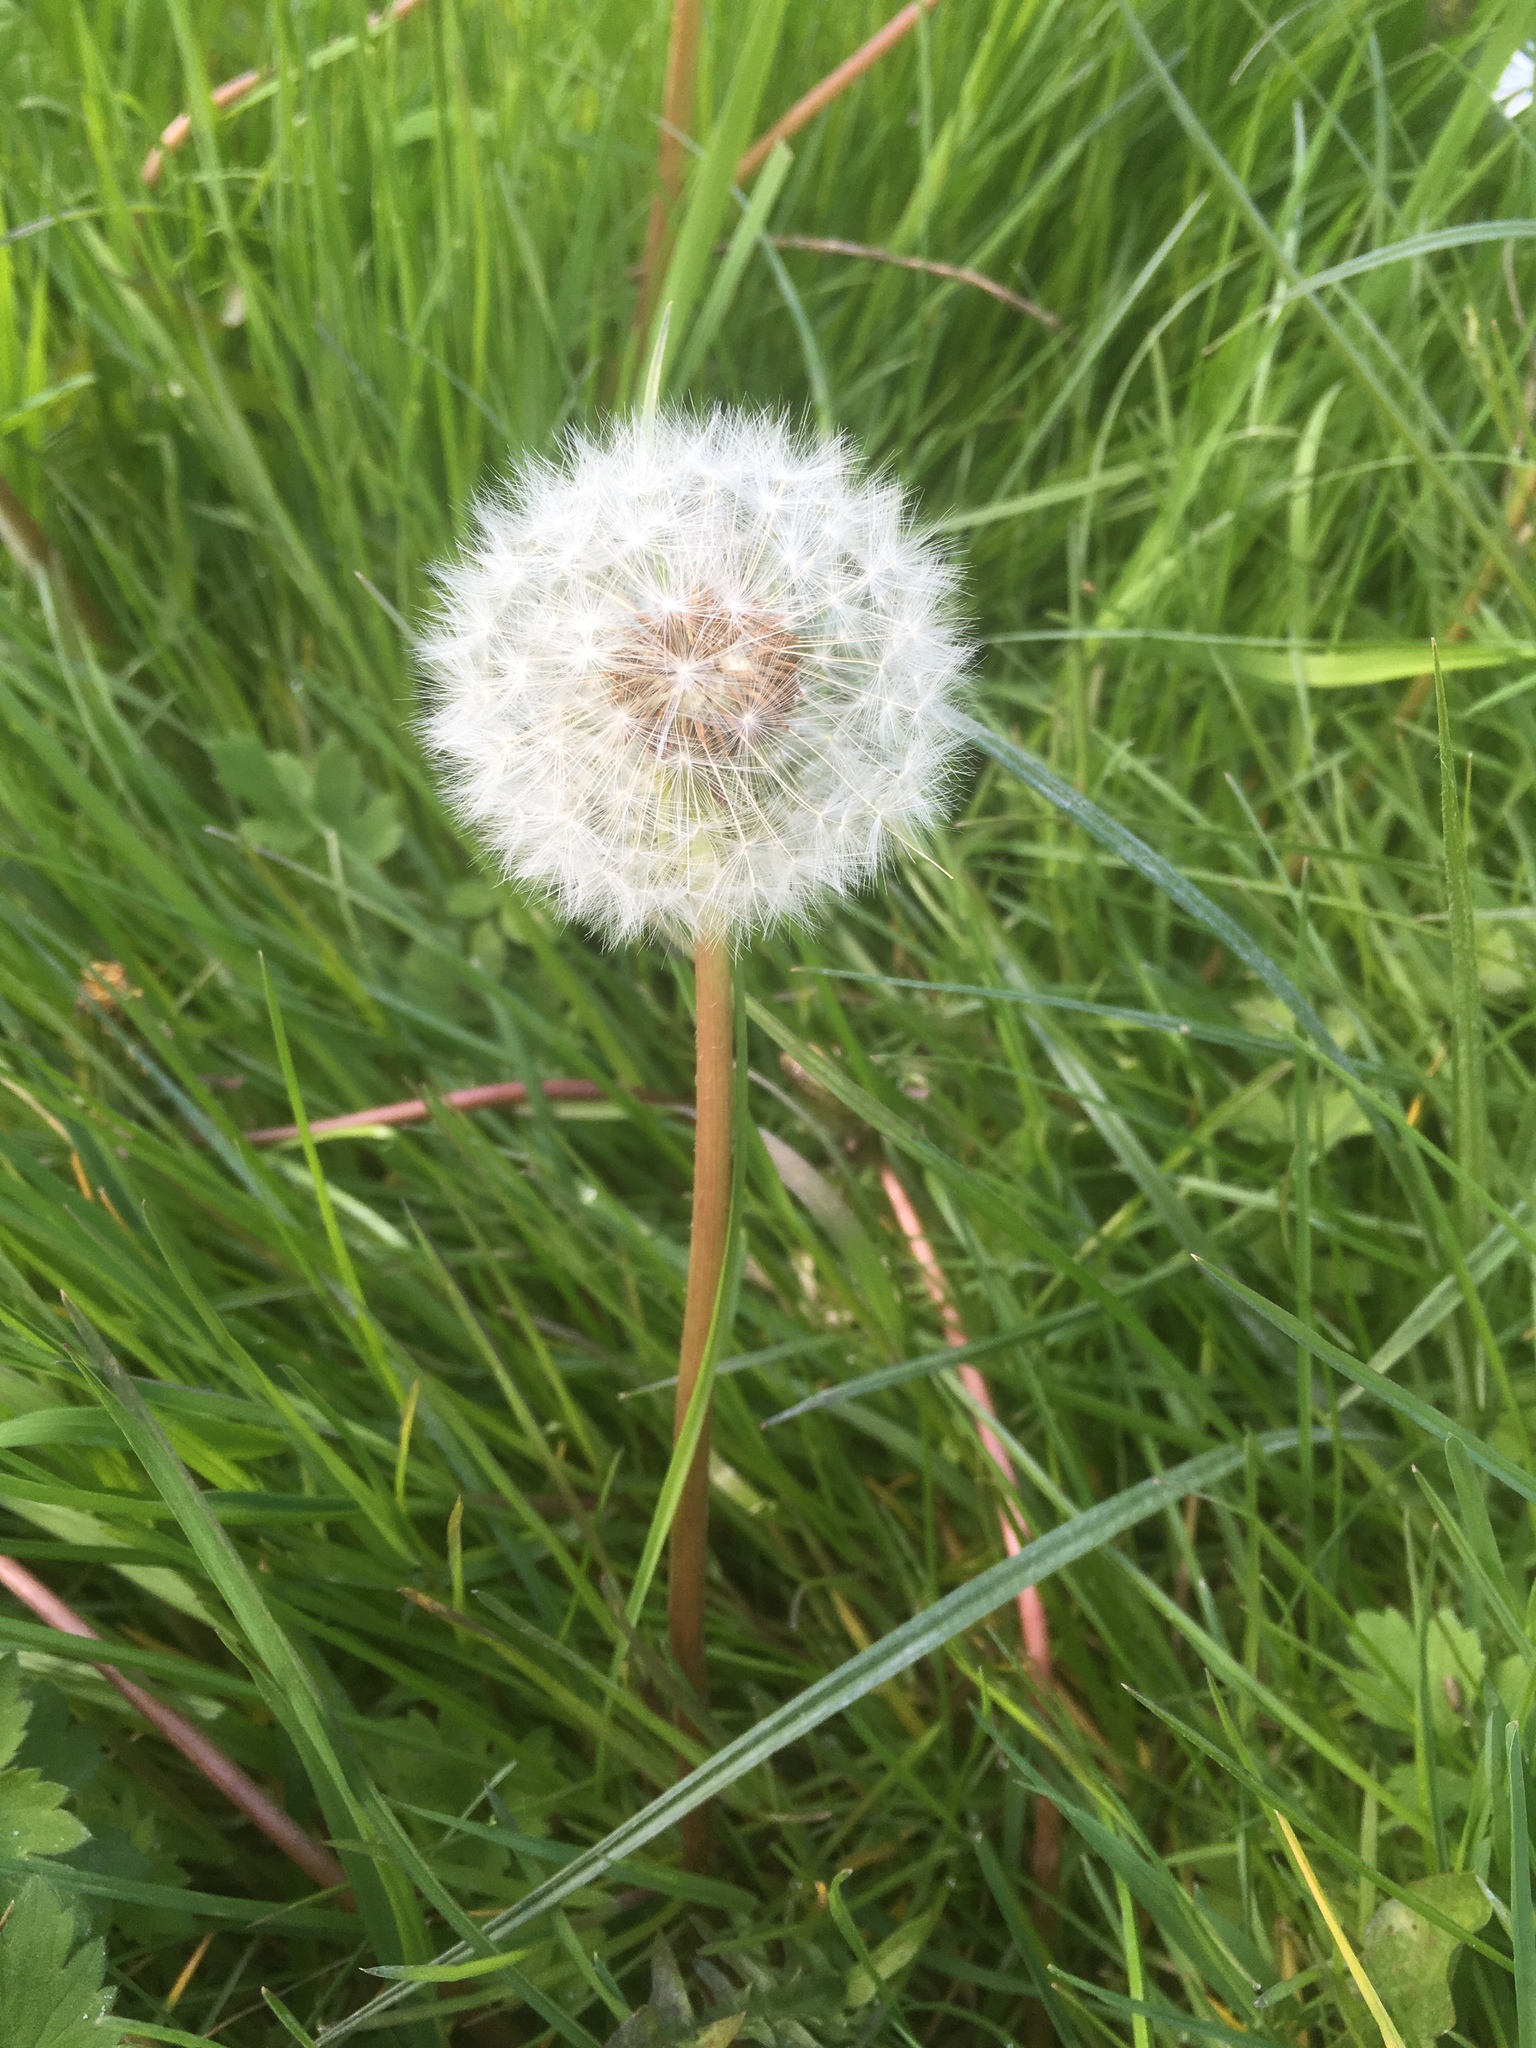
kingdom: Plantae
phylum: Tracheophyta
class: Magnoliopsida
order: Asterales
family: Asteraceae
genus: Taraxacum
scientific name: Taraxacum officinale
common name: Common dandelion
